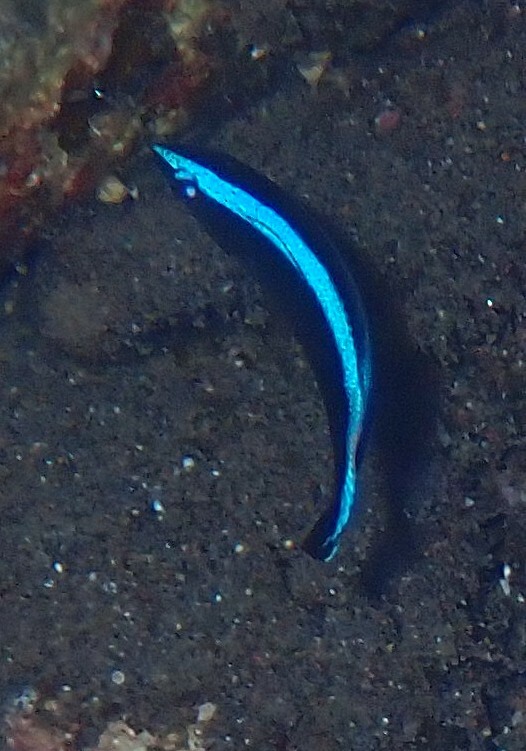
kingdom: Animalia
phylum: Chordata
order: Perciformes
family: Labridae
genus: Labroides
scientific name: Labroides dimidiatus
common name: Blue diesel wrasse
